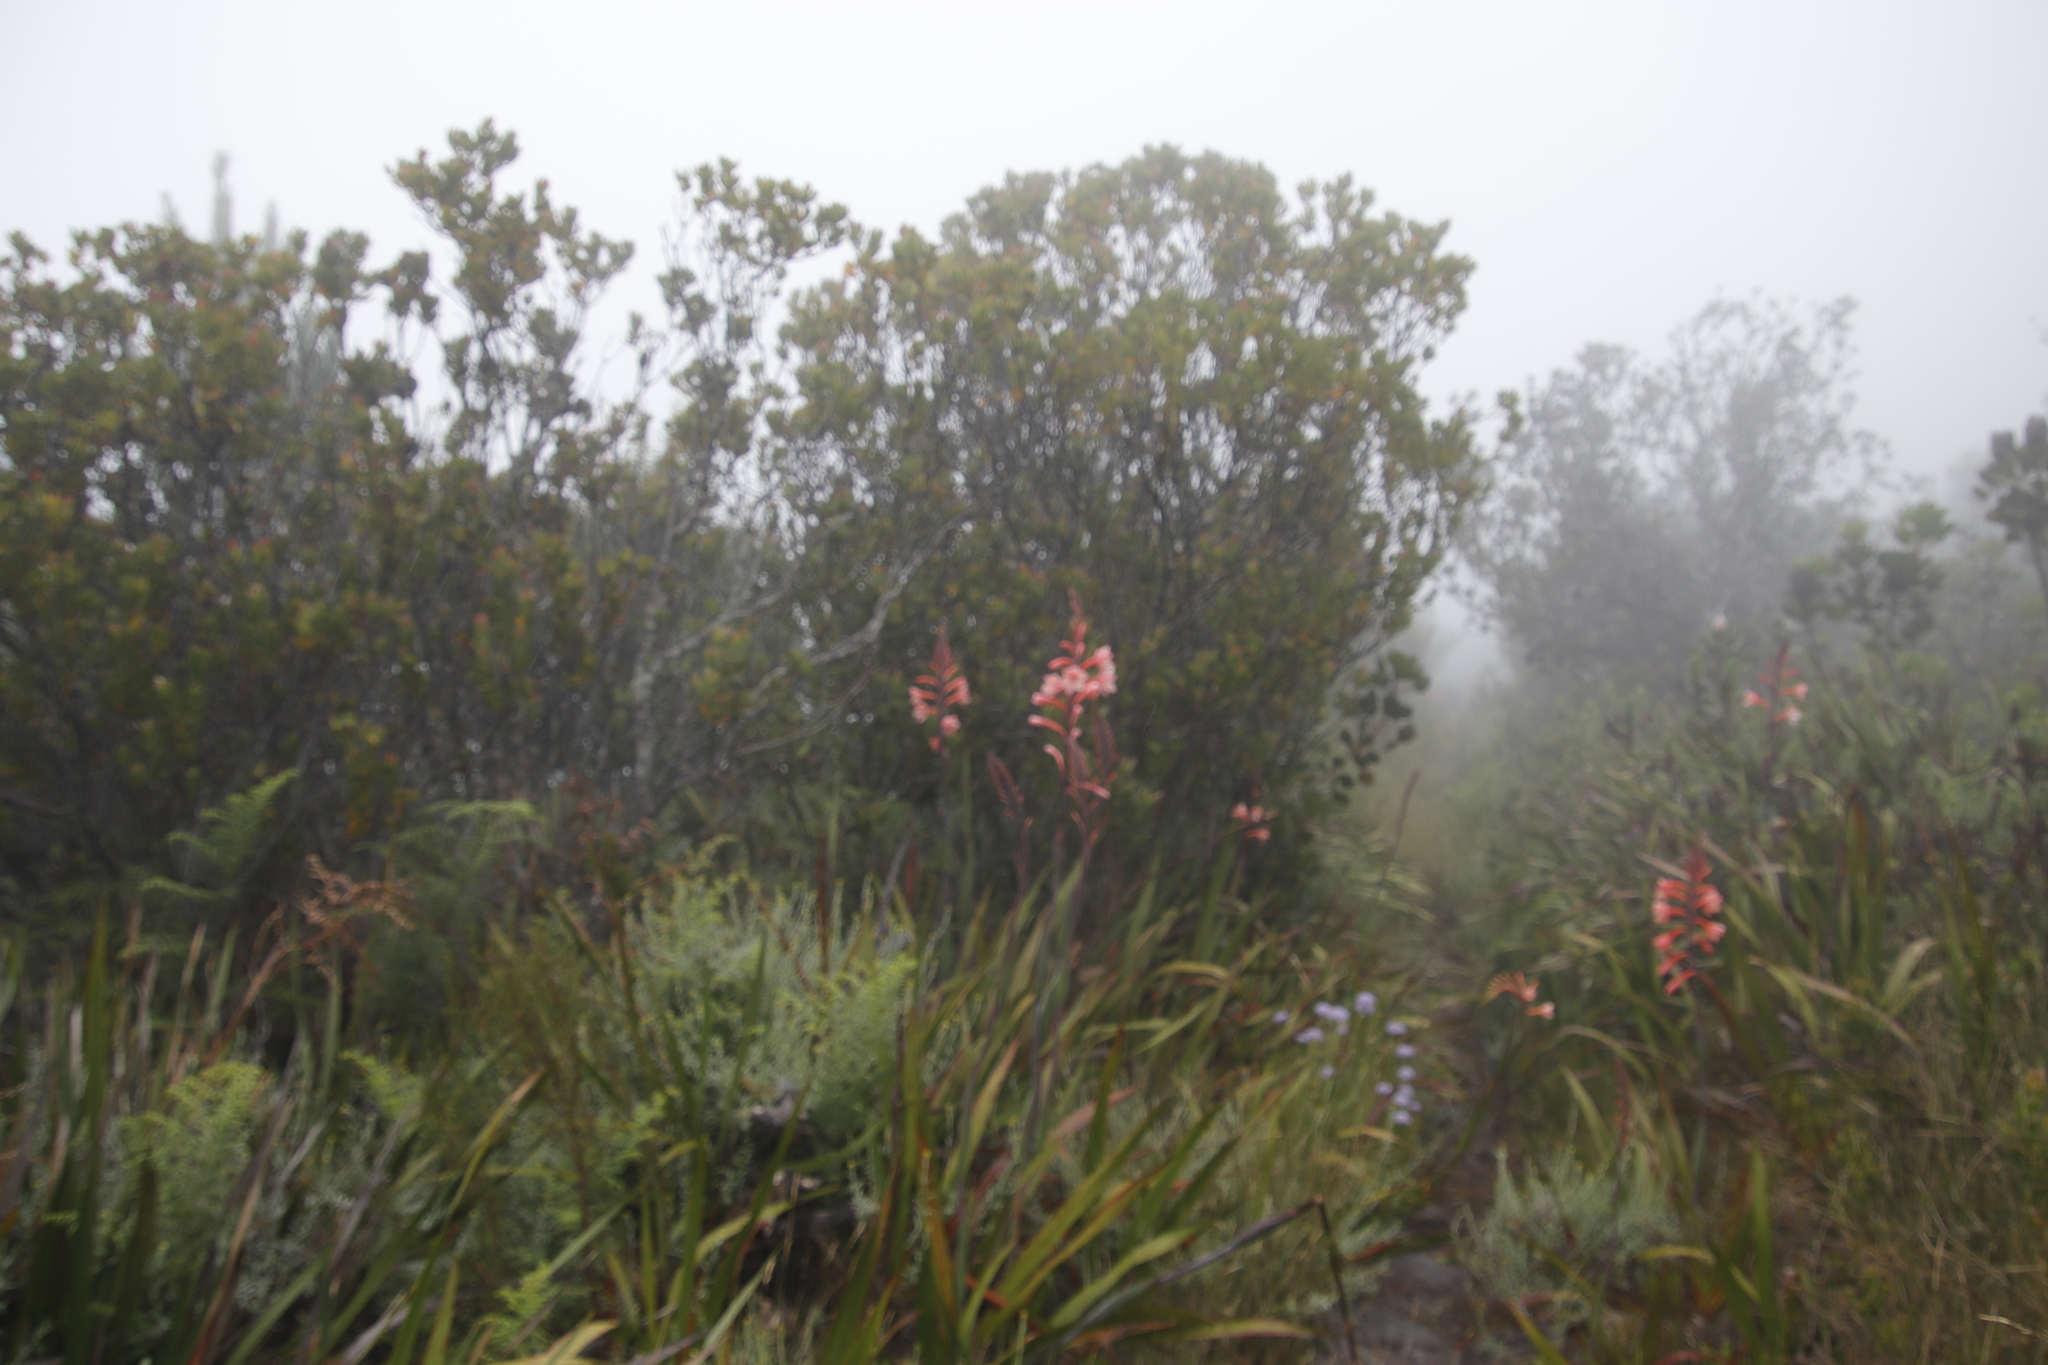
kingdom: Plantae
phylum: Tracheophyta
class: Liliopsida
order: Asparagales
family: Iridaceae
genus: Watsonia
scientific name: Watsonia tabularis
